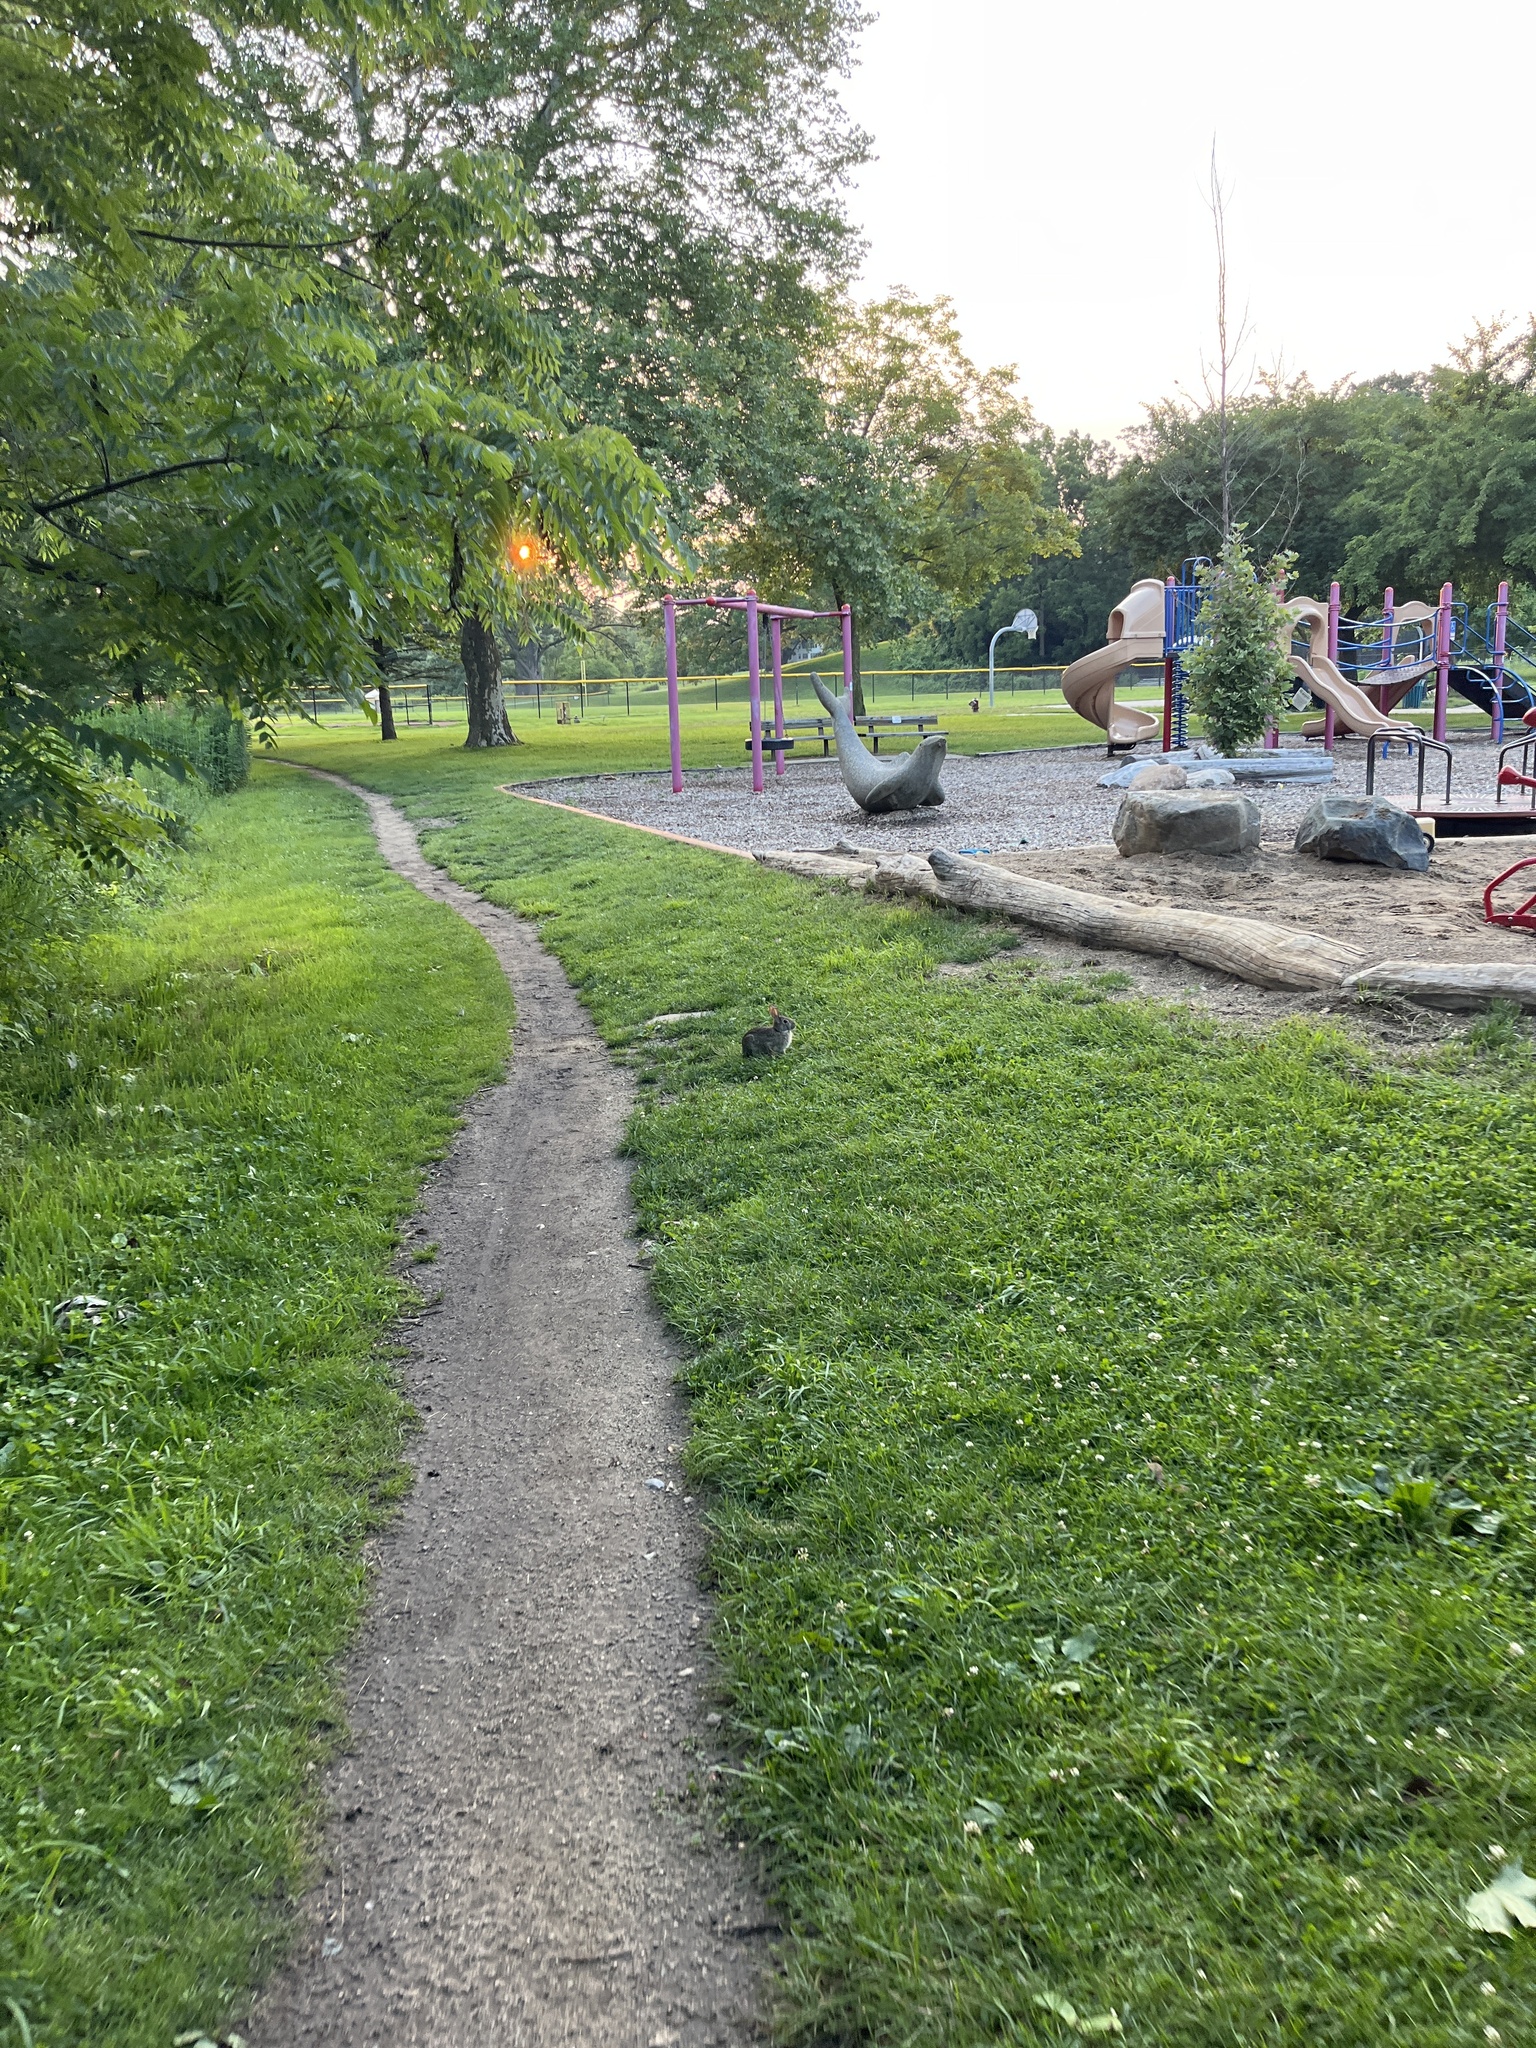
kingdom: Animalia
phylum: Chordata
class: Mammalia
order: Lagomorpha
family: Leporidae
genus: Sylvilagus
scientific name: Sylvilagus floridanus
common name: Eastern cottontail
